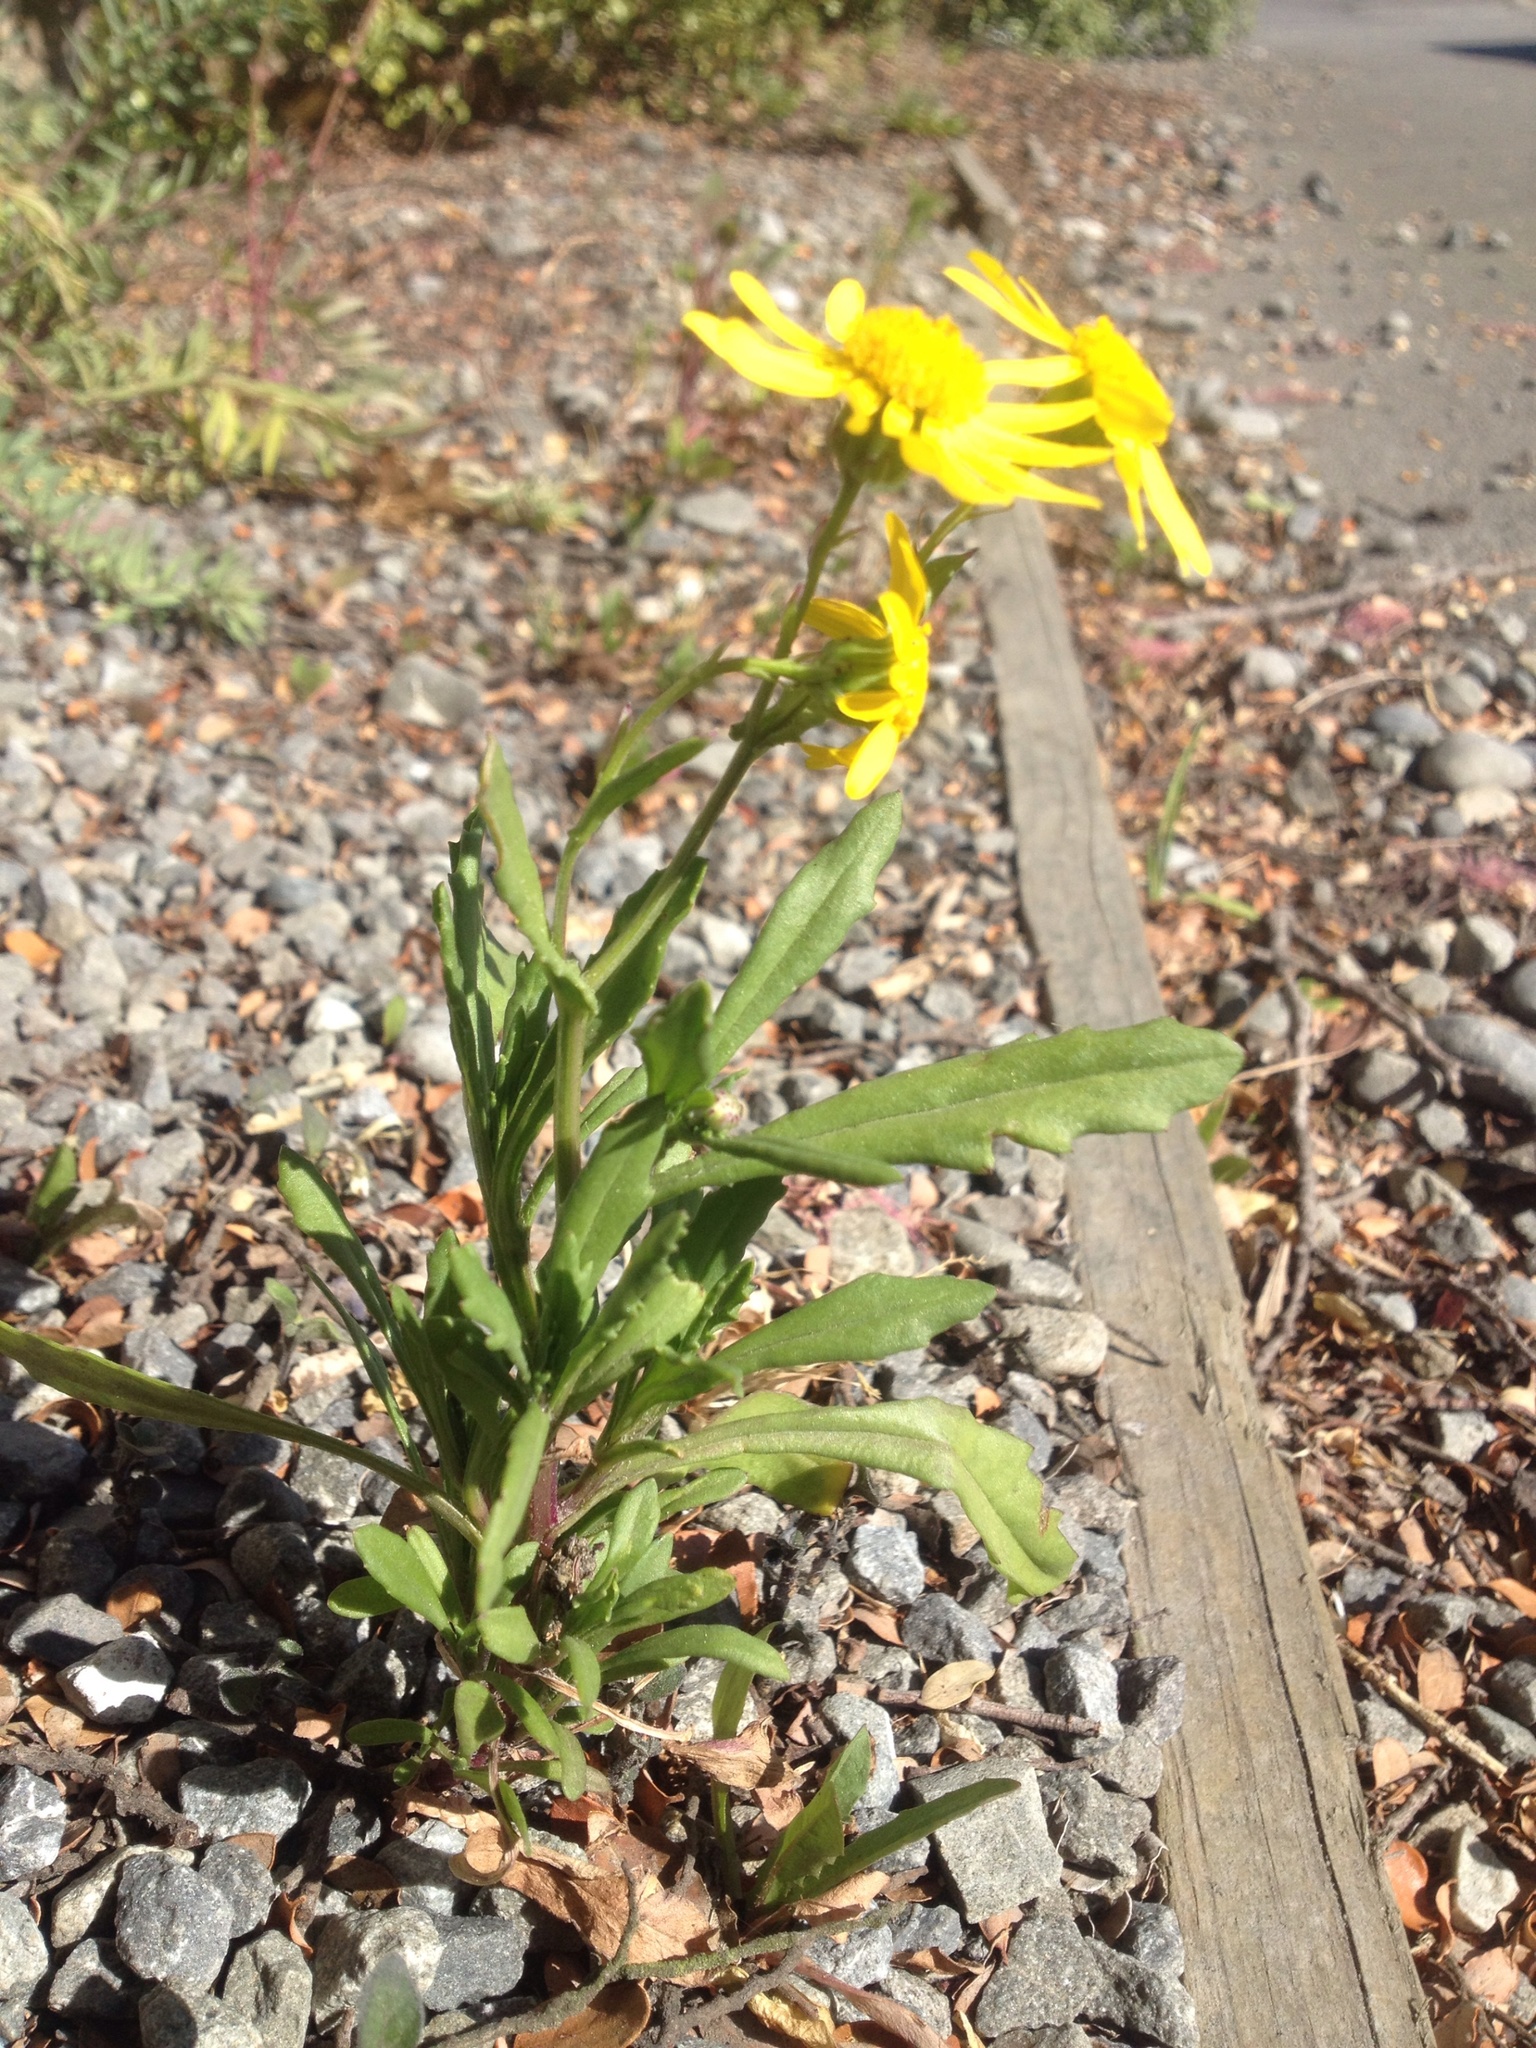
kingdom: Plantae
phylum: Tracheophyta
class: Magnoliopsida
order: Asterales
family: Asteraceae
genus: Senecio
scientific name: Senecio skirrhodon
